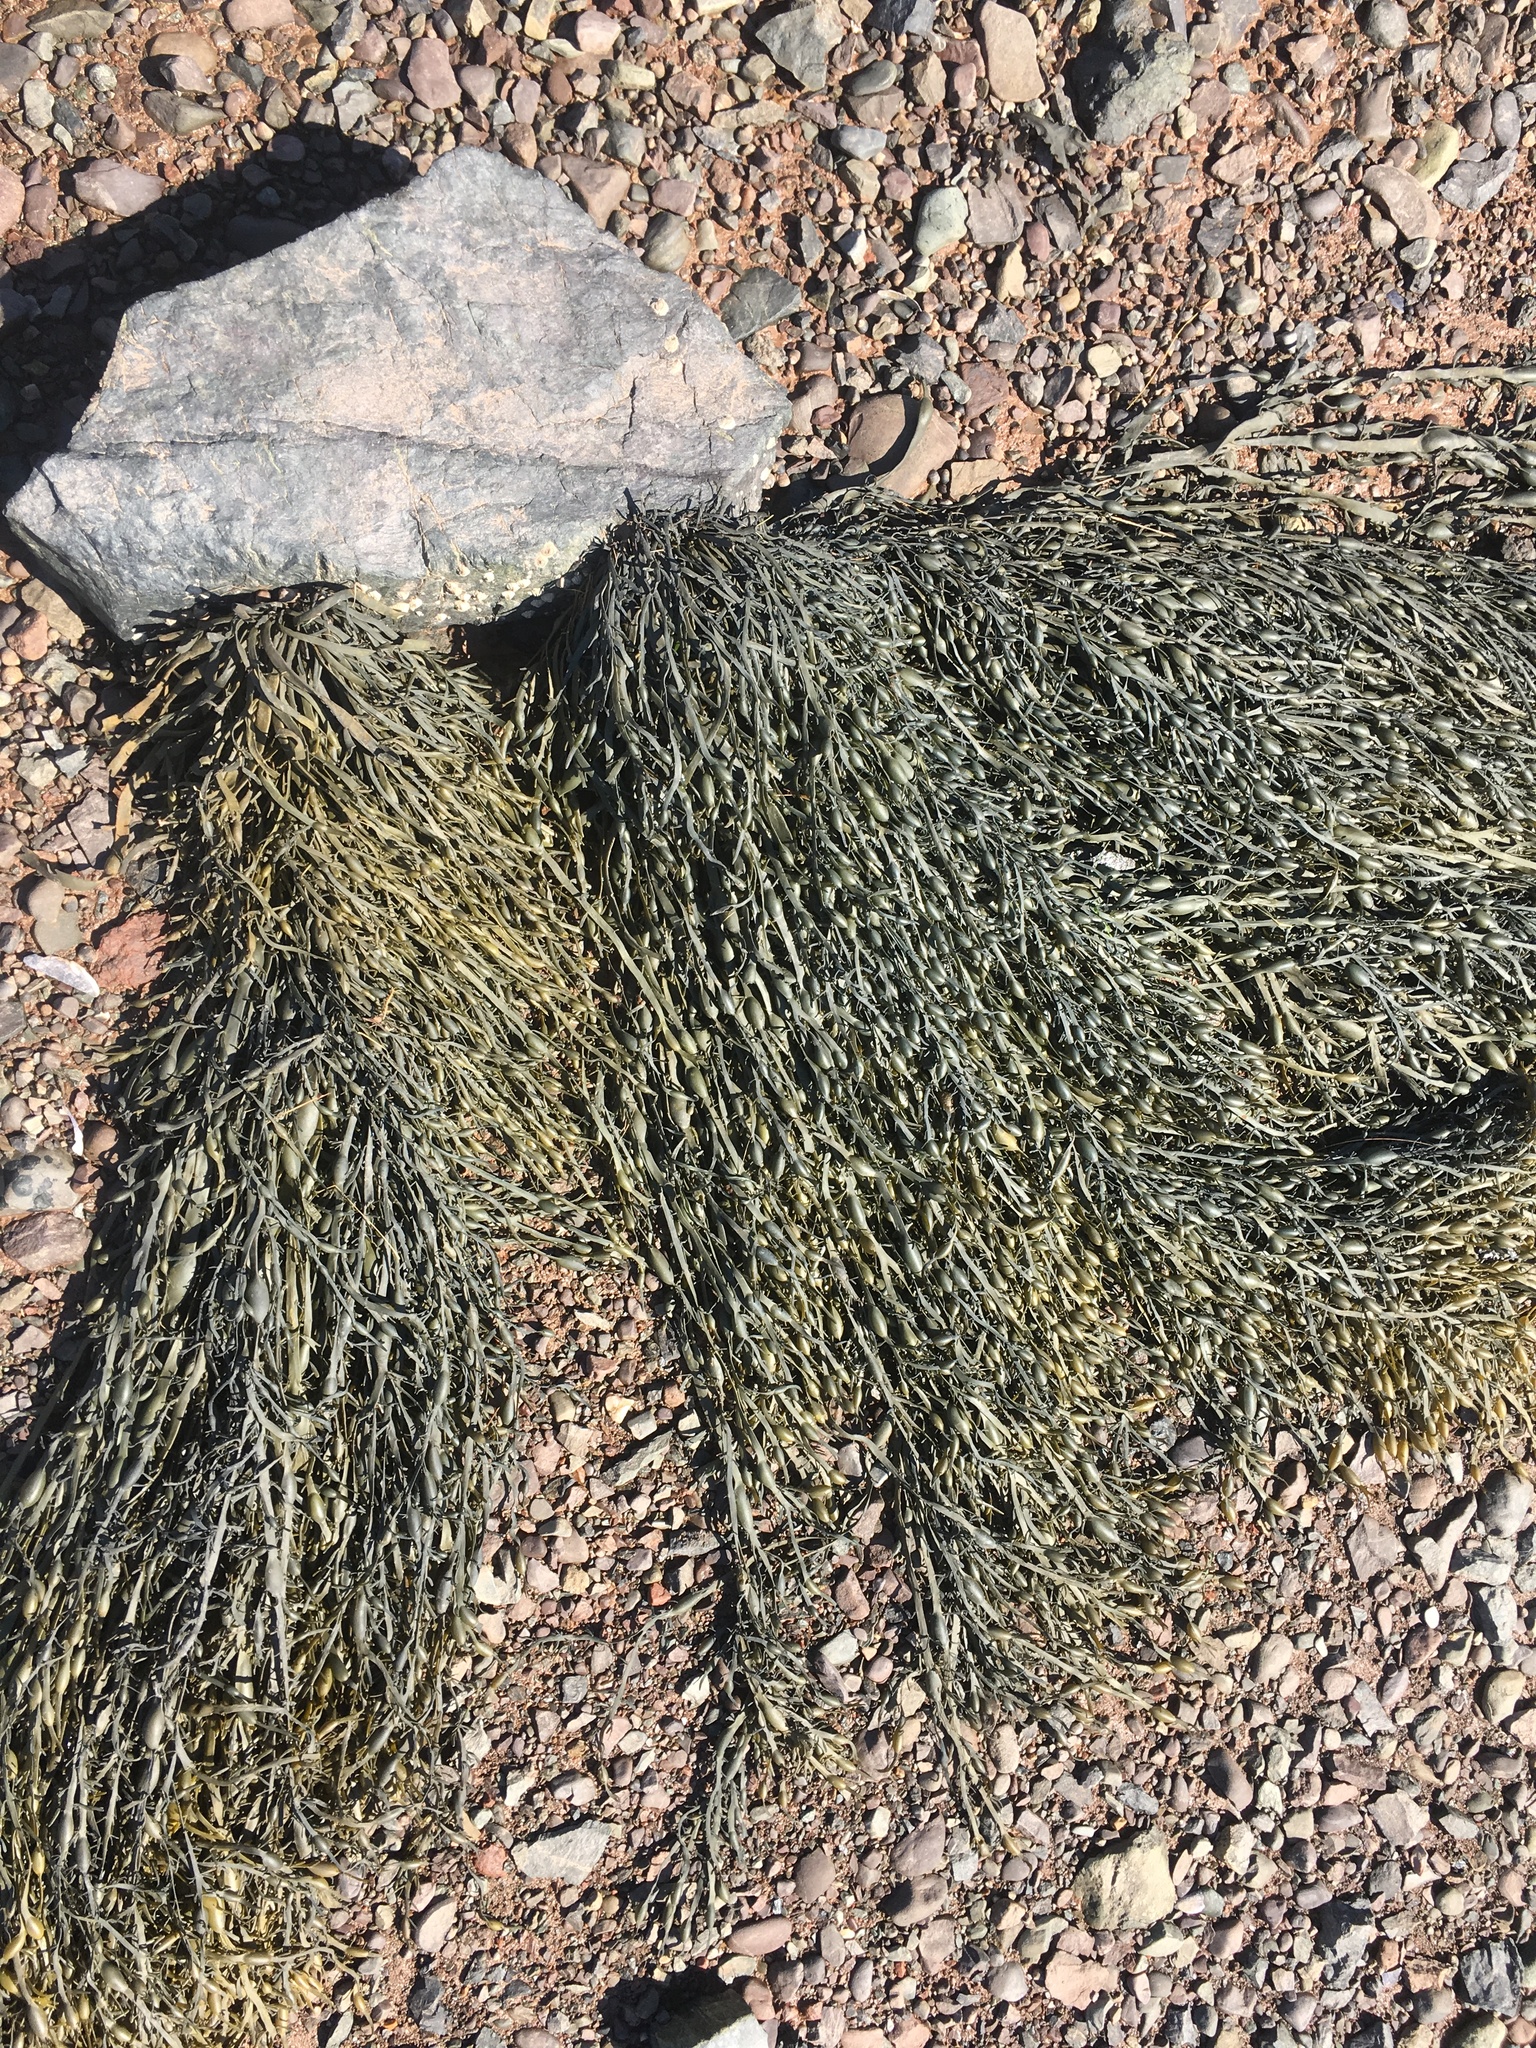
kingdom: Chromista
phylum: Ochrophyta
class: Phaeophyceae
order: Fucales
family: Fucaceae
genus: Ascophyllum
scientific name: Ascophyllum nodosum
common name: Knotted wrack
